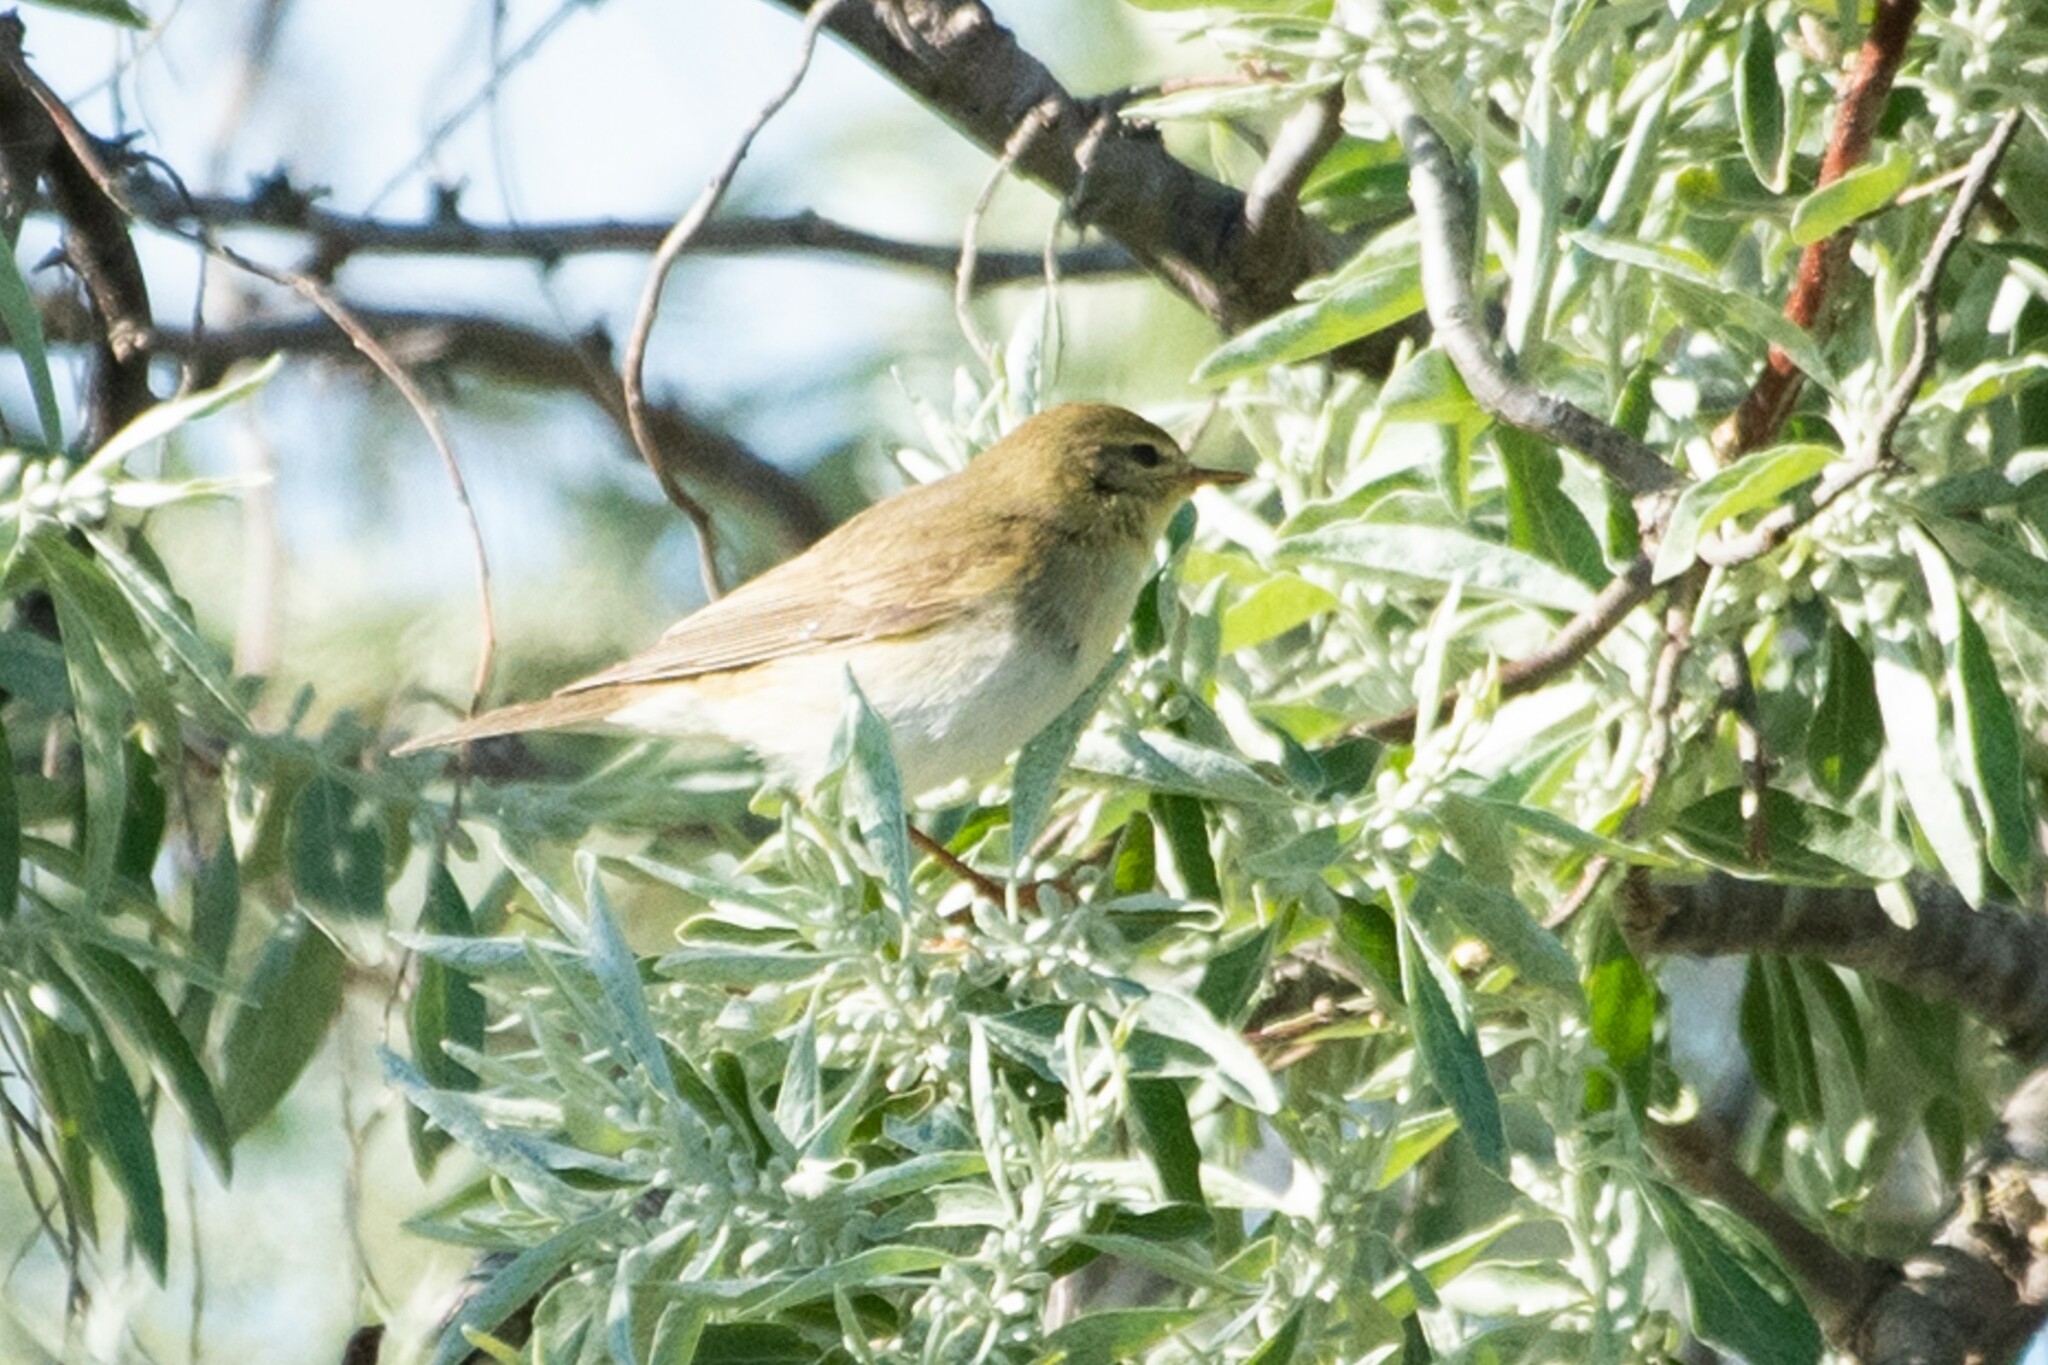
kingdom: Animalia
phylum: Chordata
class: Aves
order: Passeriformes
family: Phylloscopidae
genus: Phylloscopus
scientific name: Phylloscopus collybita
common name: Common chiffchaff
